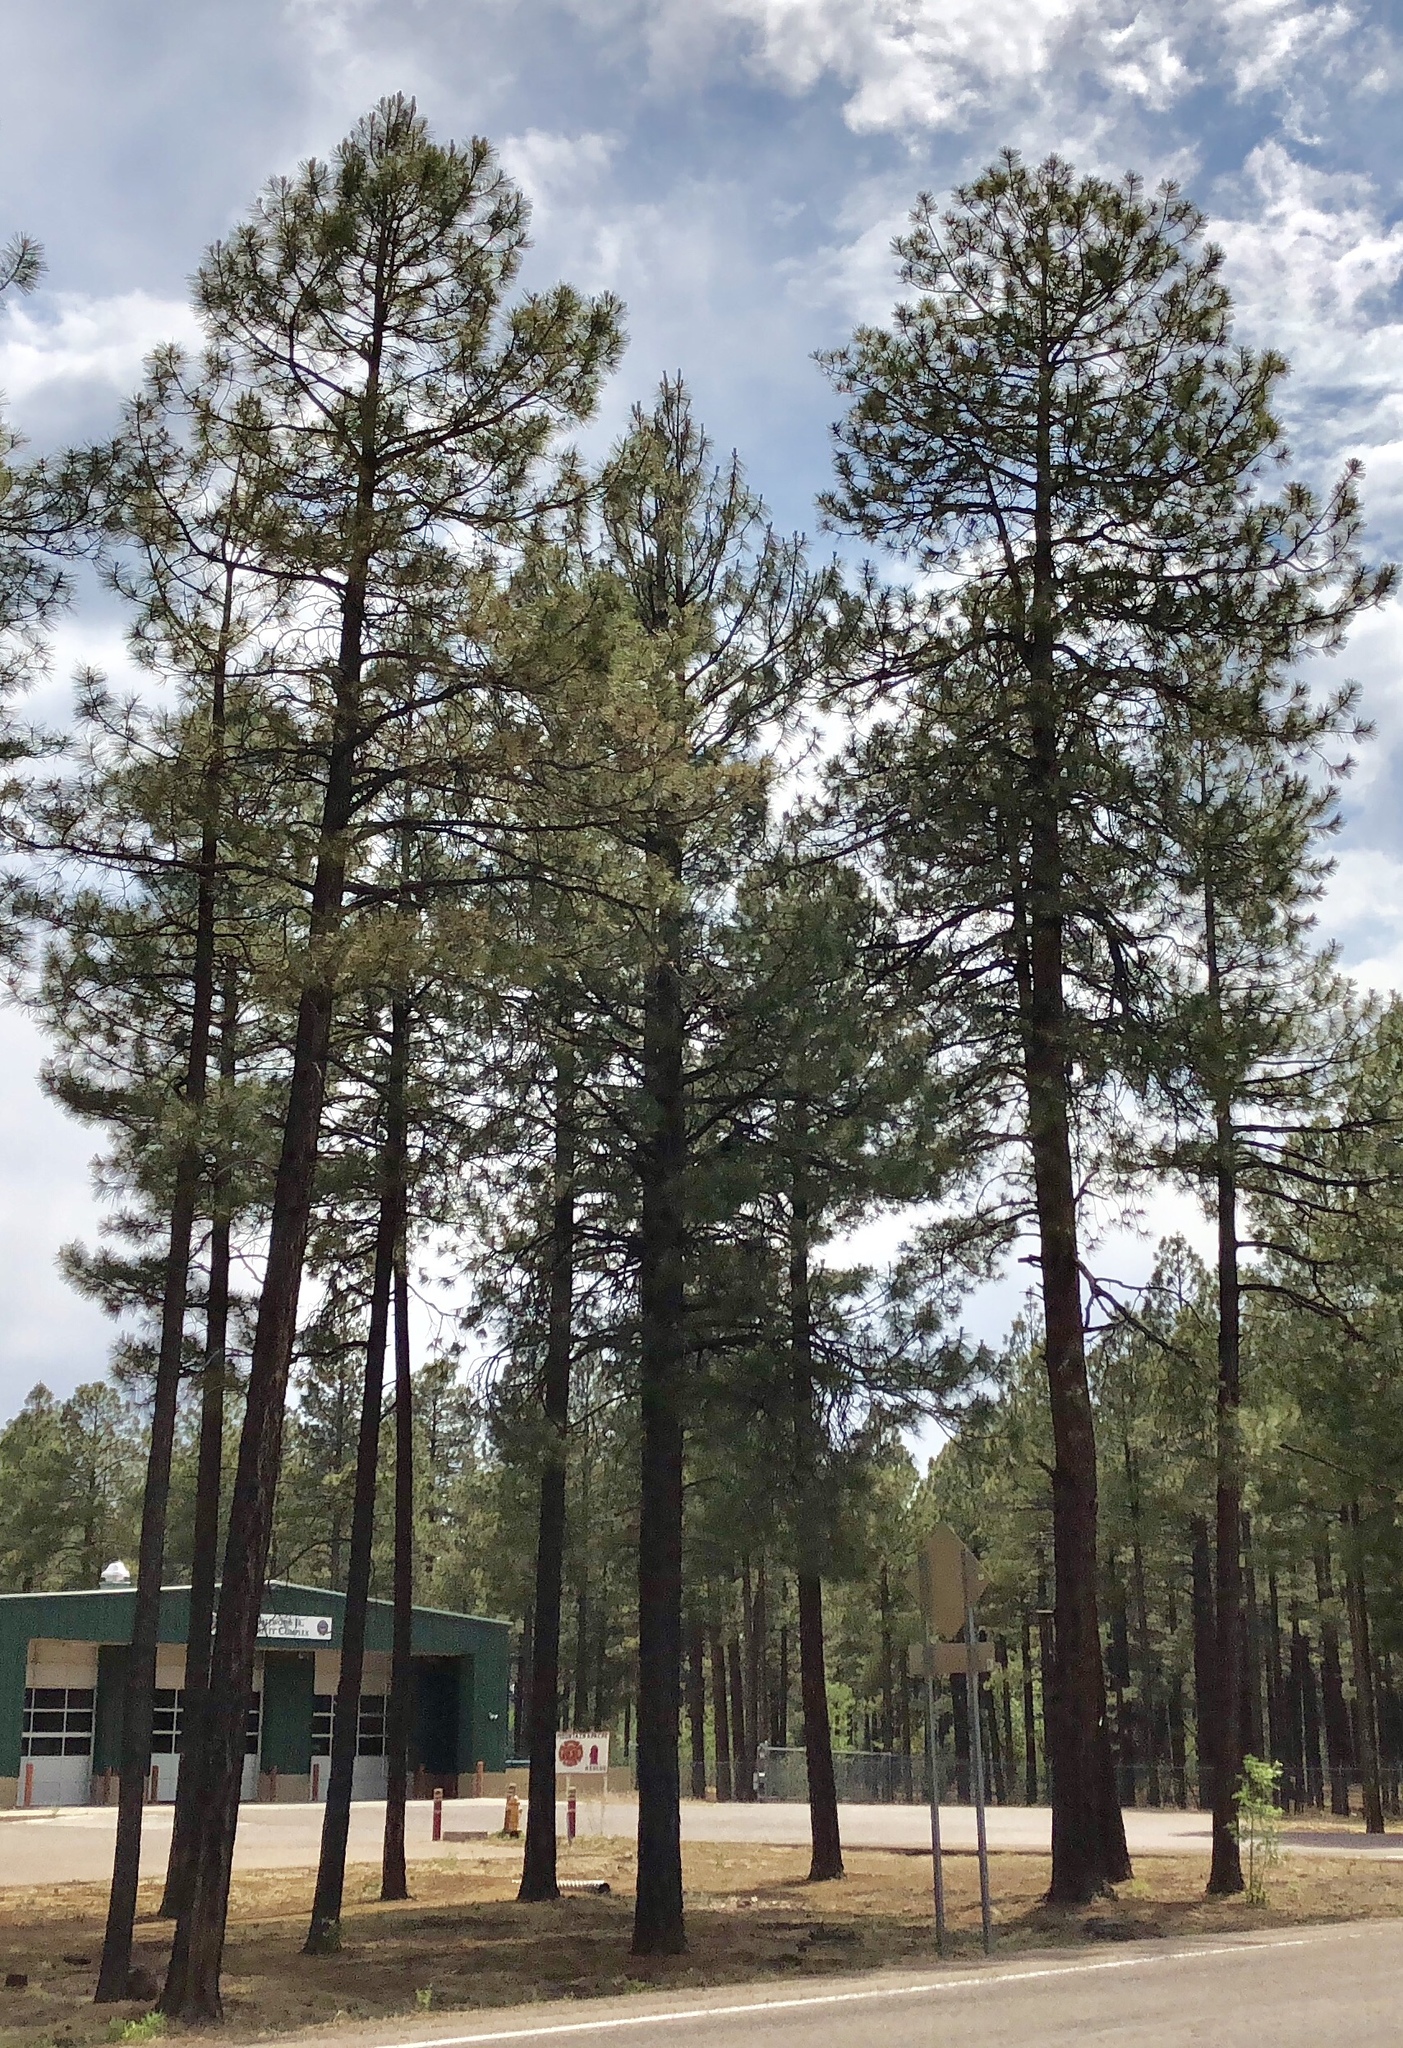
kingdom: Plantae
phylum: Tracheophyta
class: Pinopsida
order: Pinales
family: Pinaceae
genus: Pinus
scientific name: Pinus ponderosa
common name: Western yellow-pine
